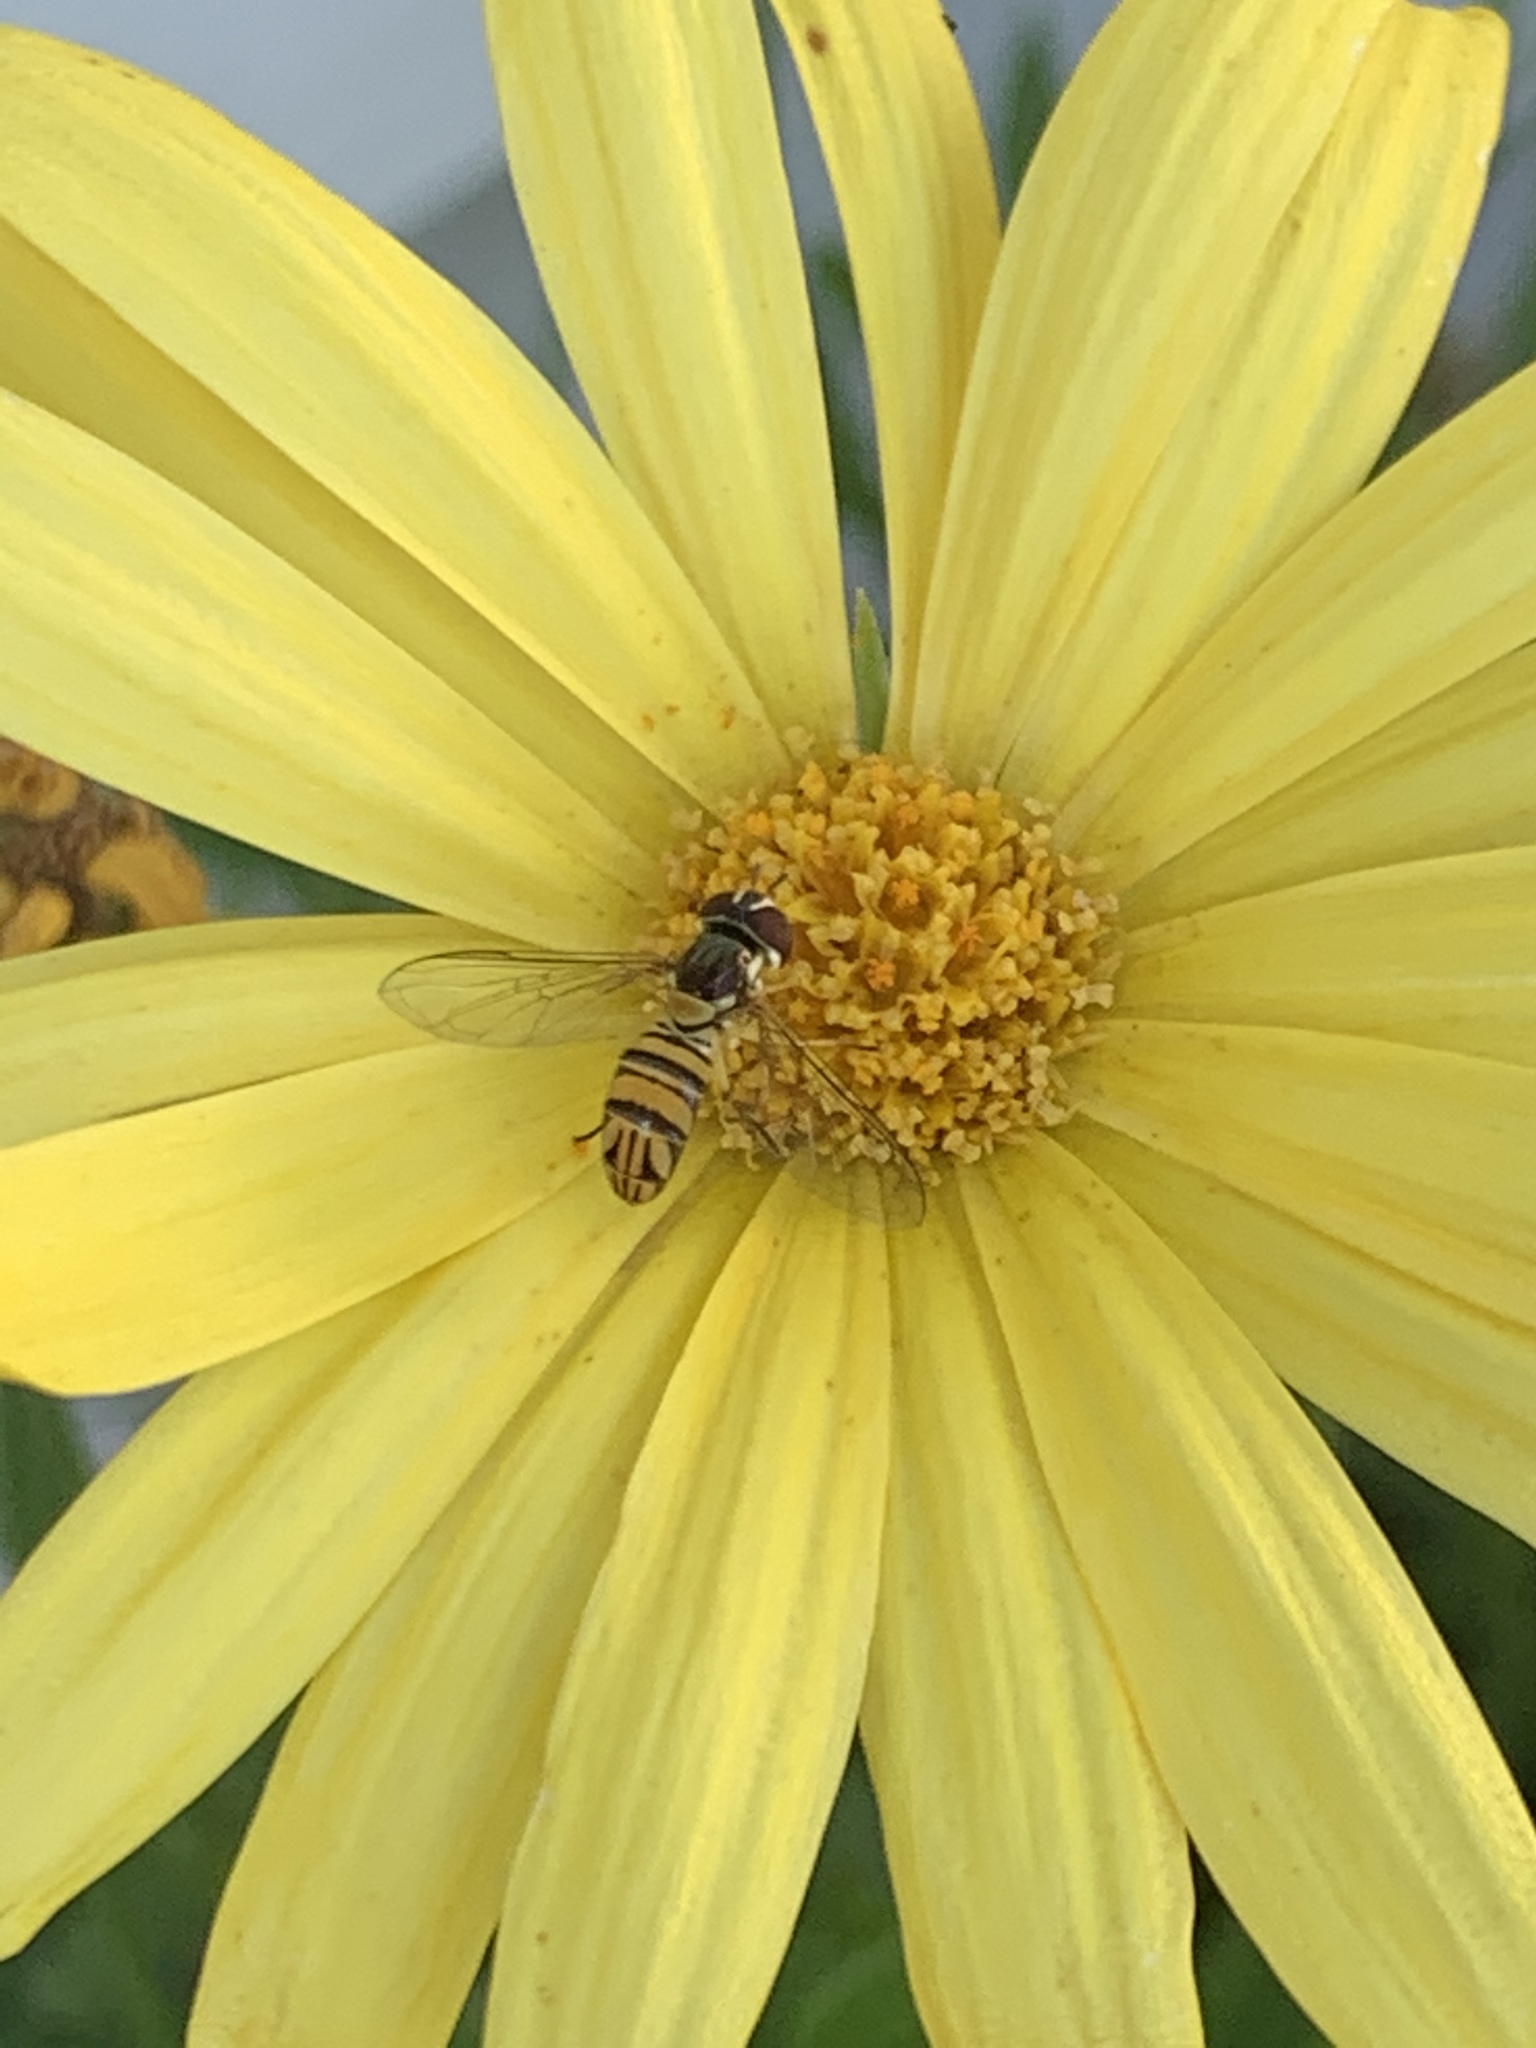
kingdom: Animalia
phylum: Arthropoda
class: Insecta
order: Diptera
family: Syrphidae
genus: Allograpta
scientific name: Allograpta obliqua
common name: Common oblique syrphid
